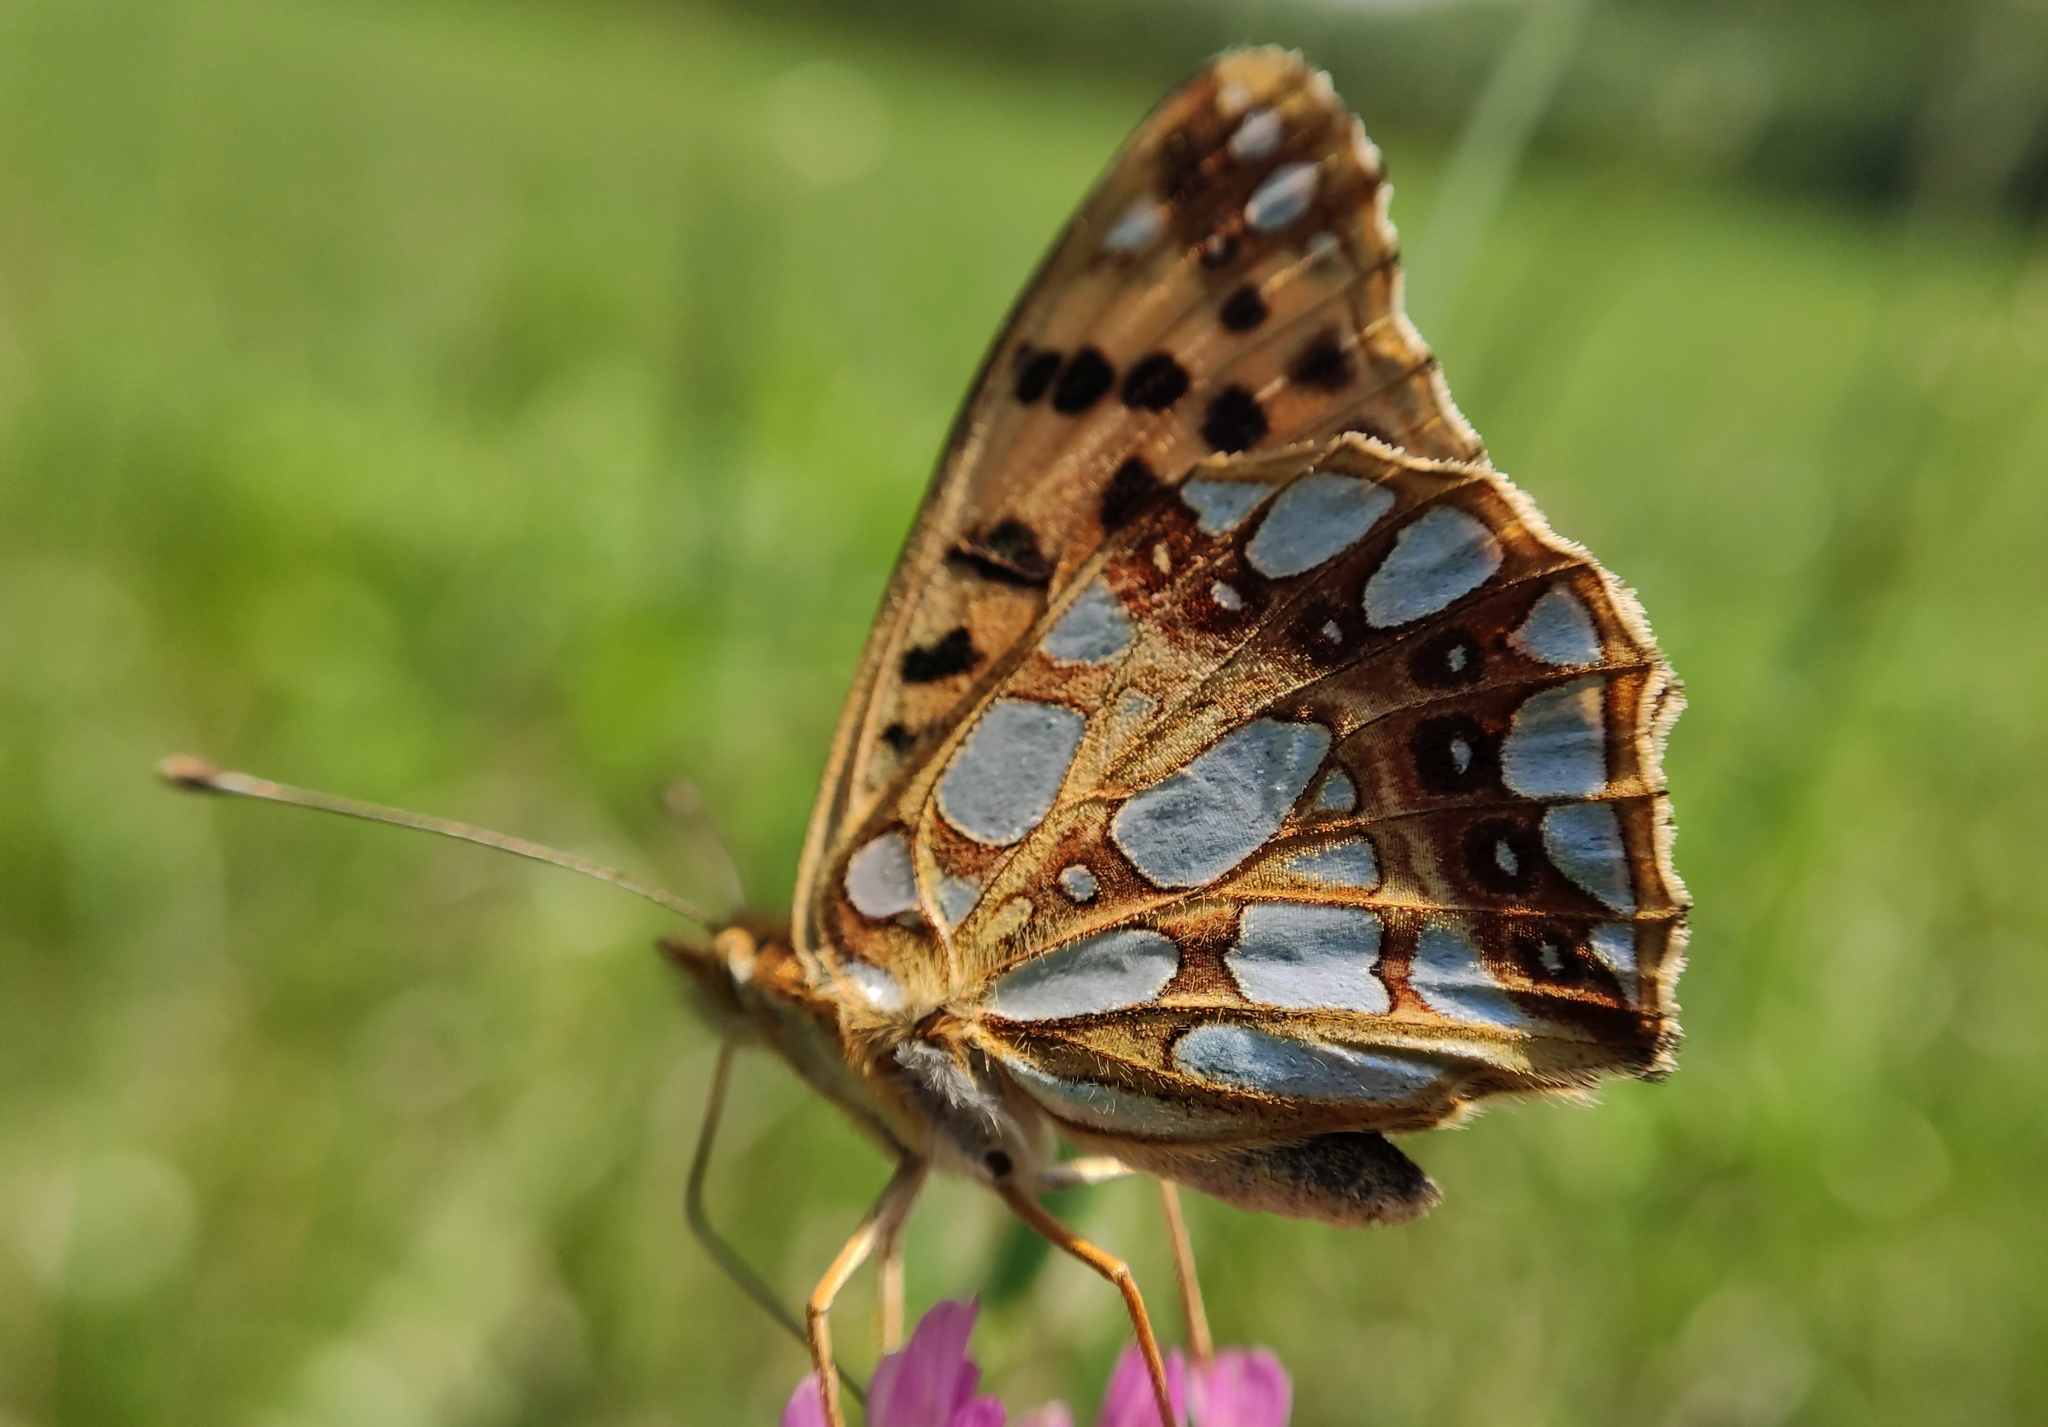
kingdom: Animalia
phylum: Arthropoda
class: Insecta
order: Lepidoptera
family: Nymphalidae
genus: Issoria
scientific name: Issoria lathonia
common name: Queen of spain fritillary
